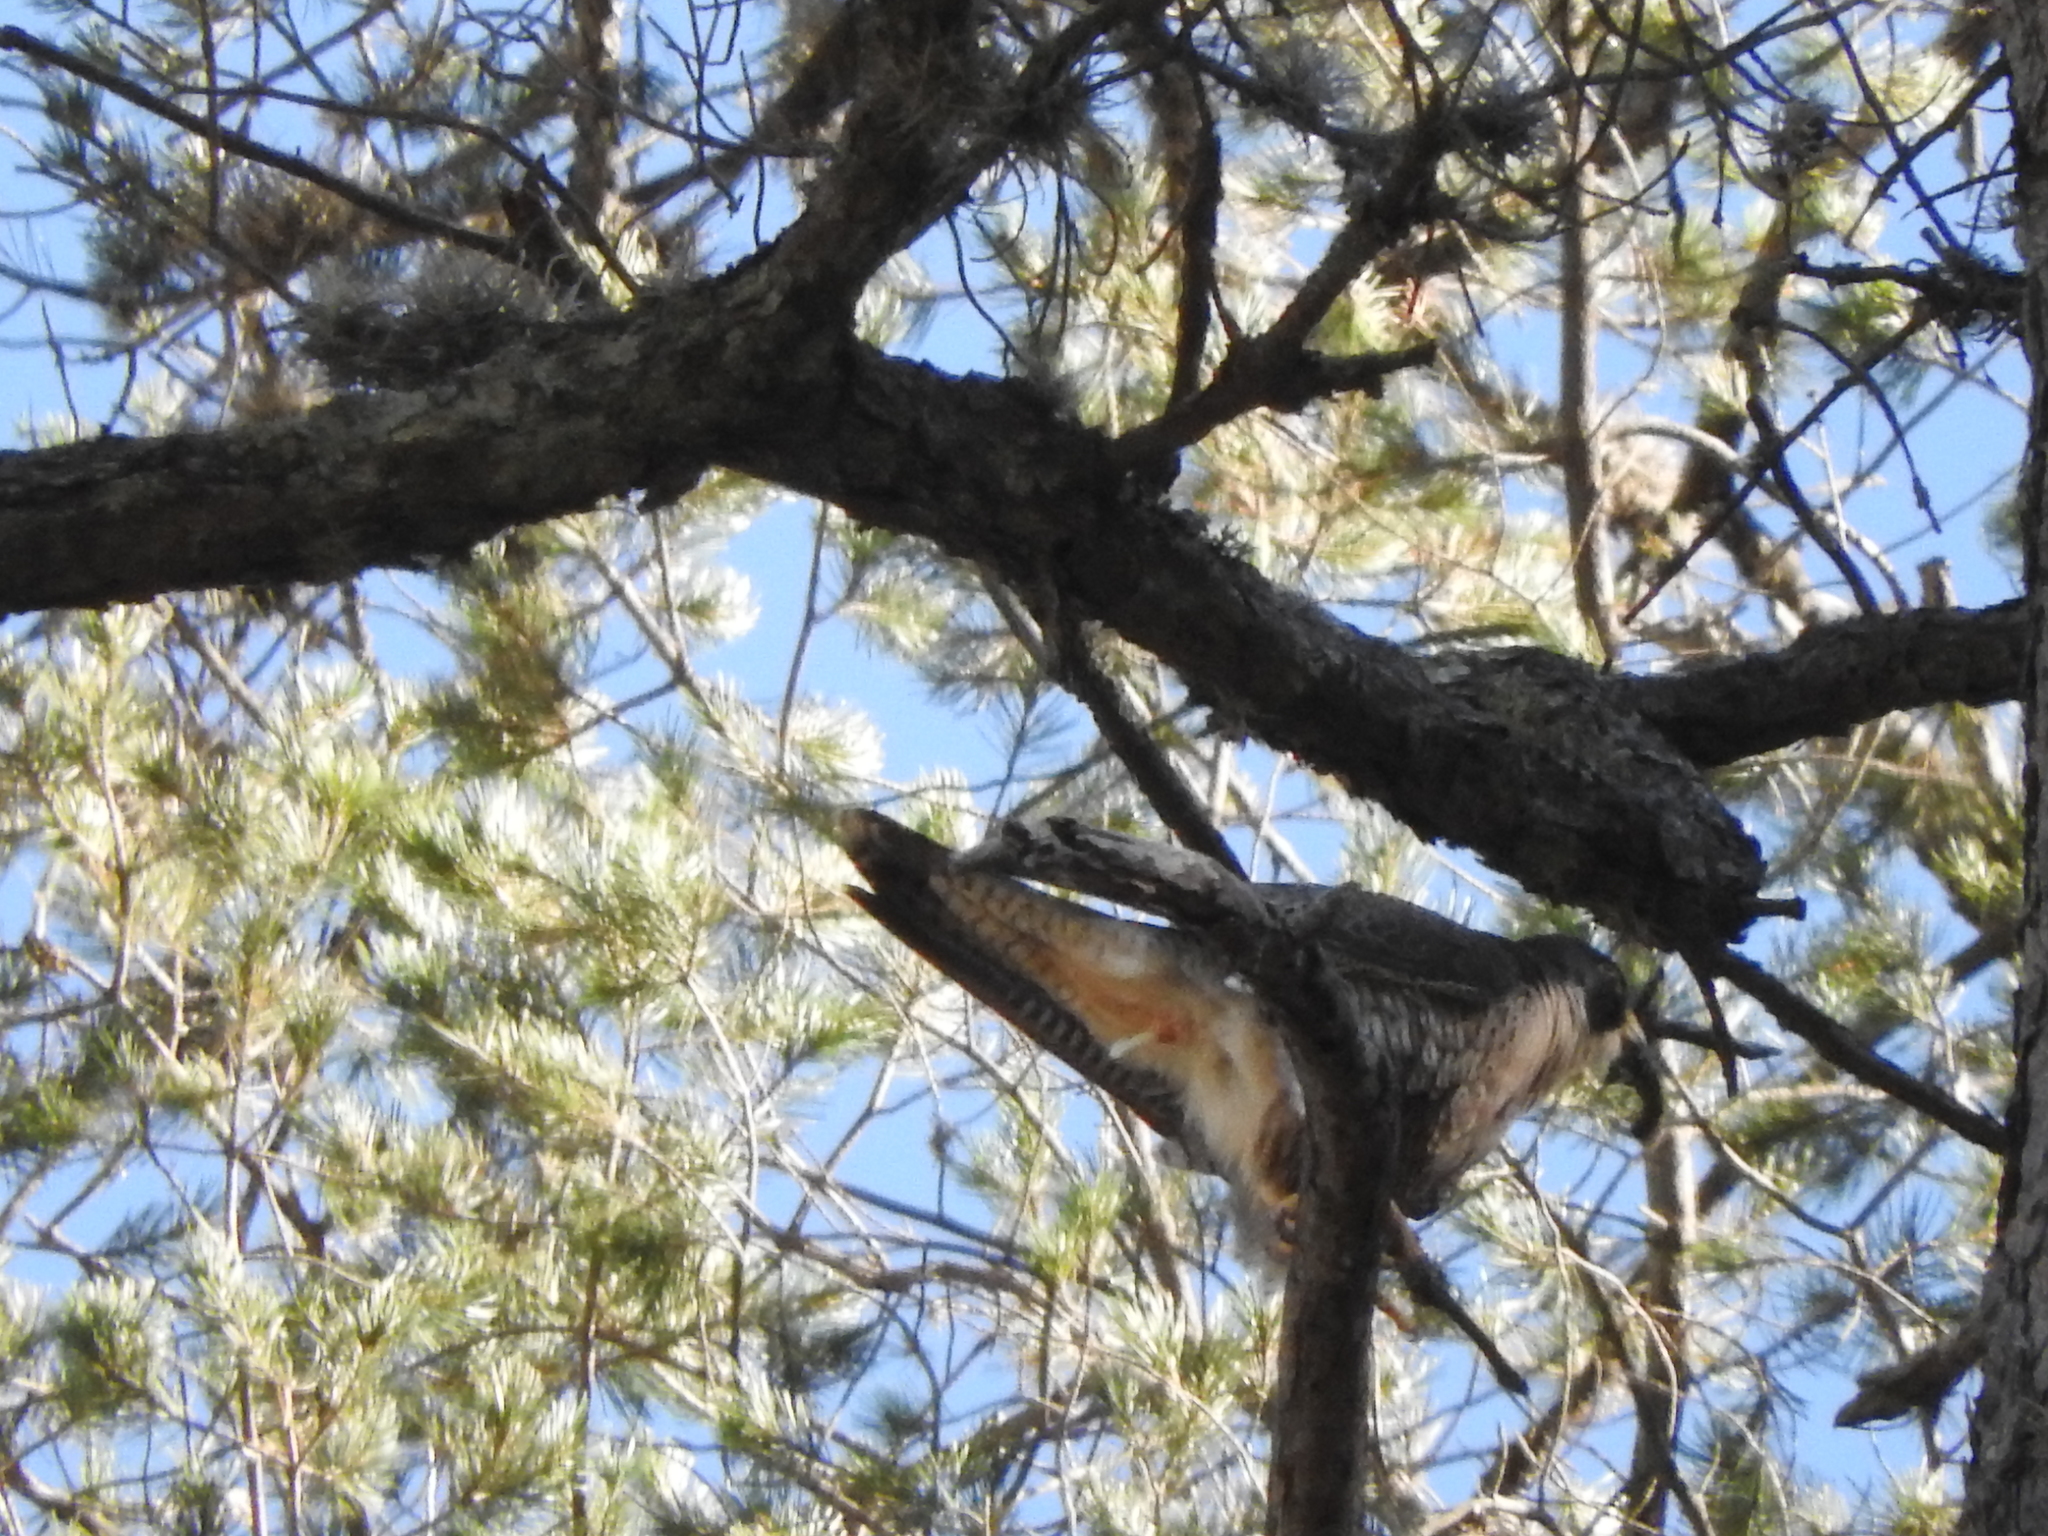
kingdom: Animalia
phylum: Chordata
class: Aves
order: Falconiformes
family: Falconidae
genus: Falco
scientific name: Falco peregrinus
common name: Peregrine falcon
